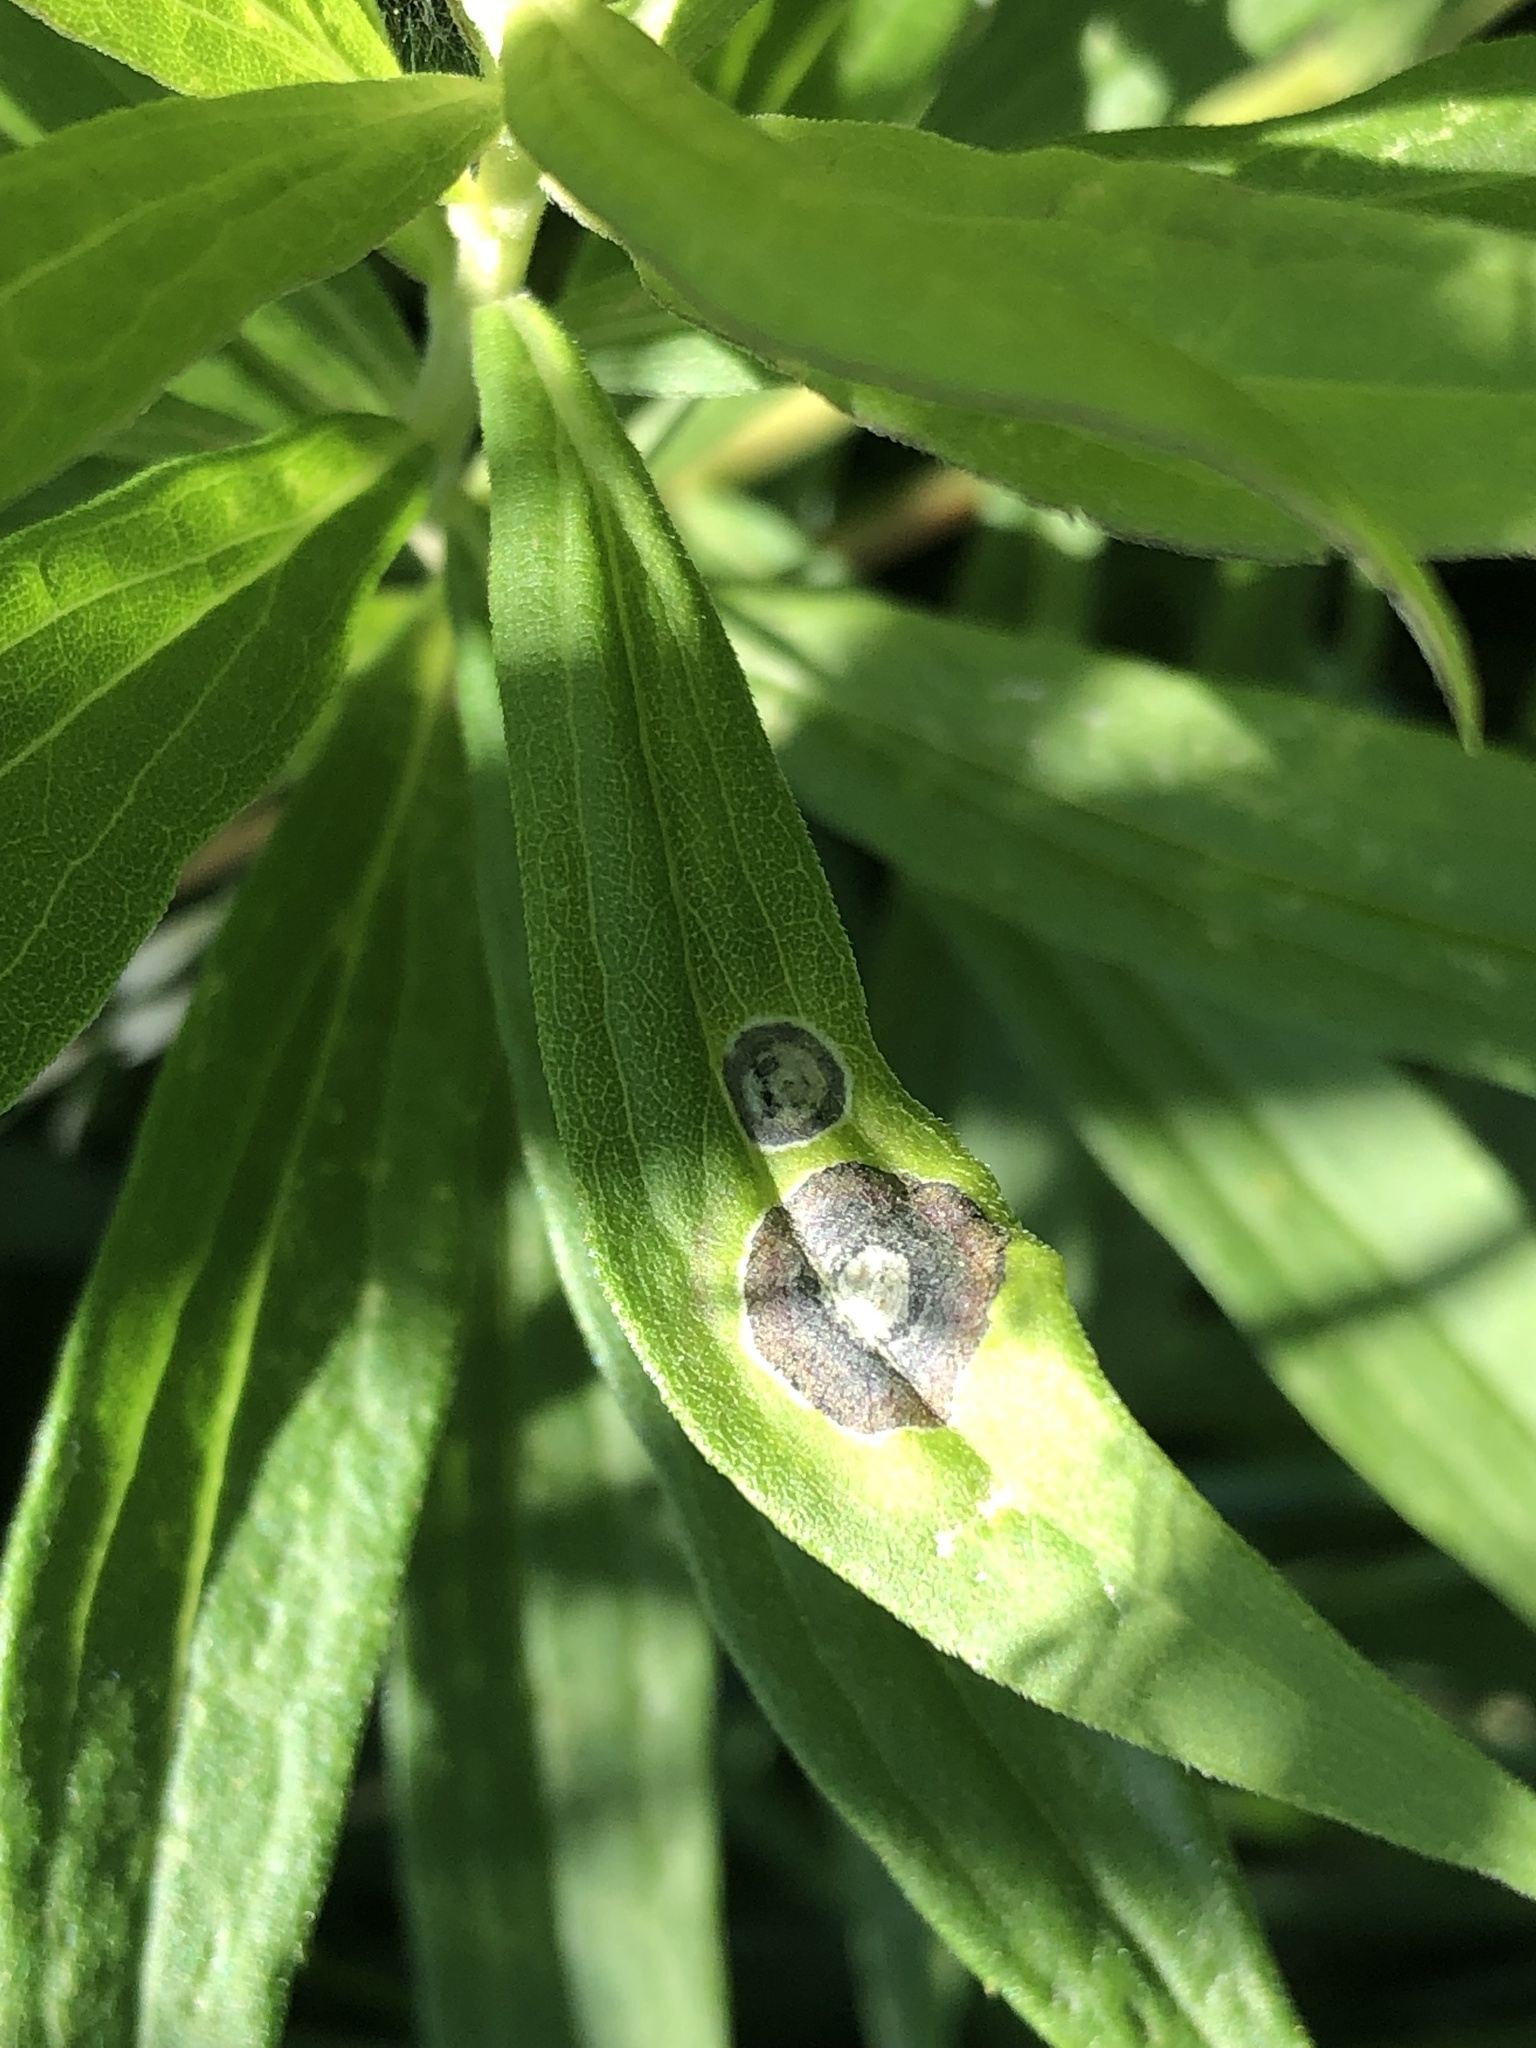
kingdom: Animalia
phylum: Arthropoda
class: Insecta
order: Diptera
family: Cecidomyiidae
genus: Asteromyia
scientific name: Asteromyia carbonifera
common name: Carbonifera goldenrod gall midge
